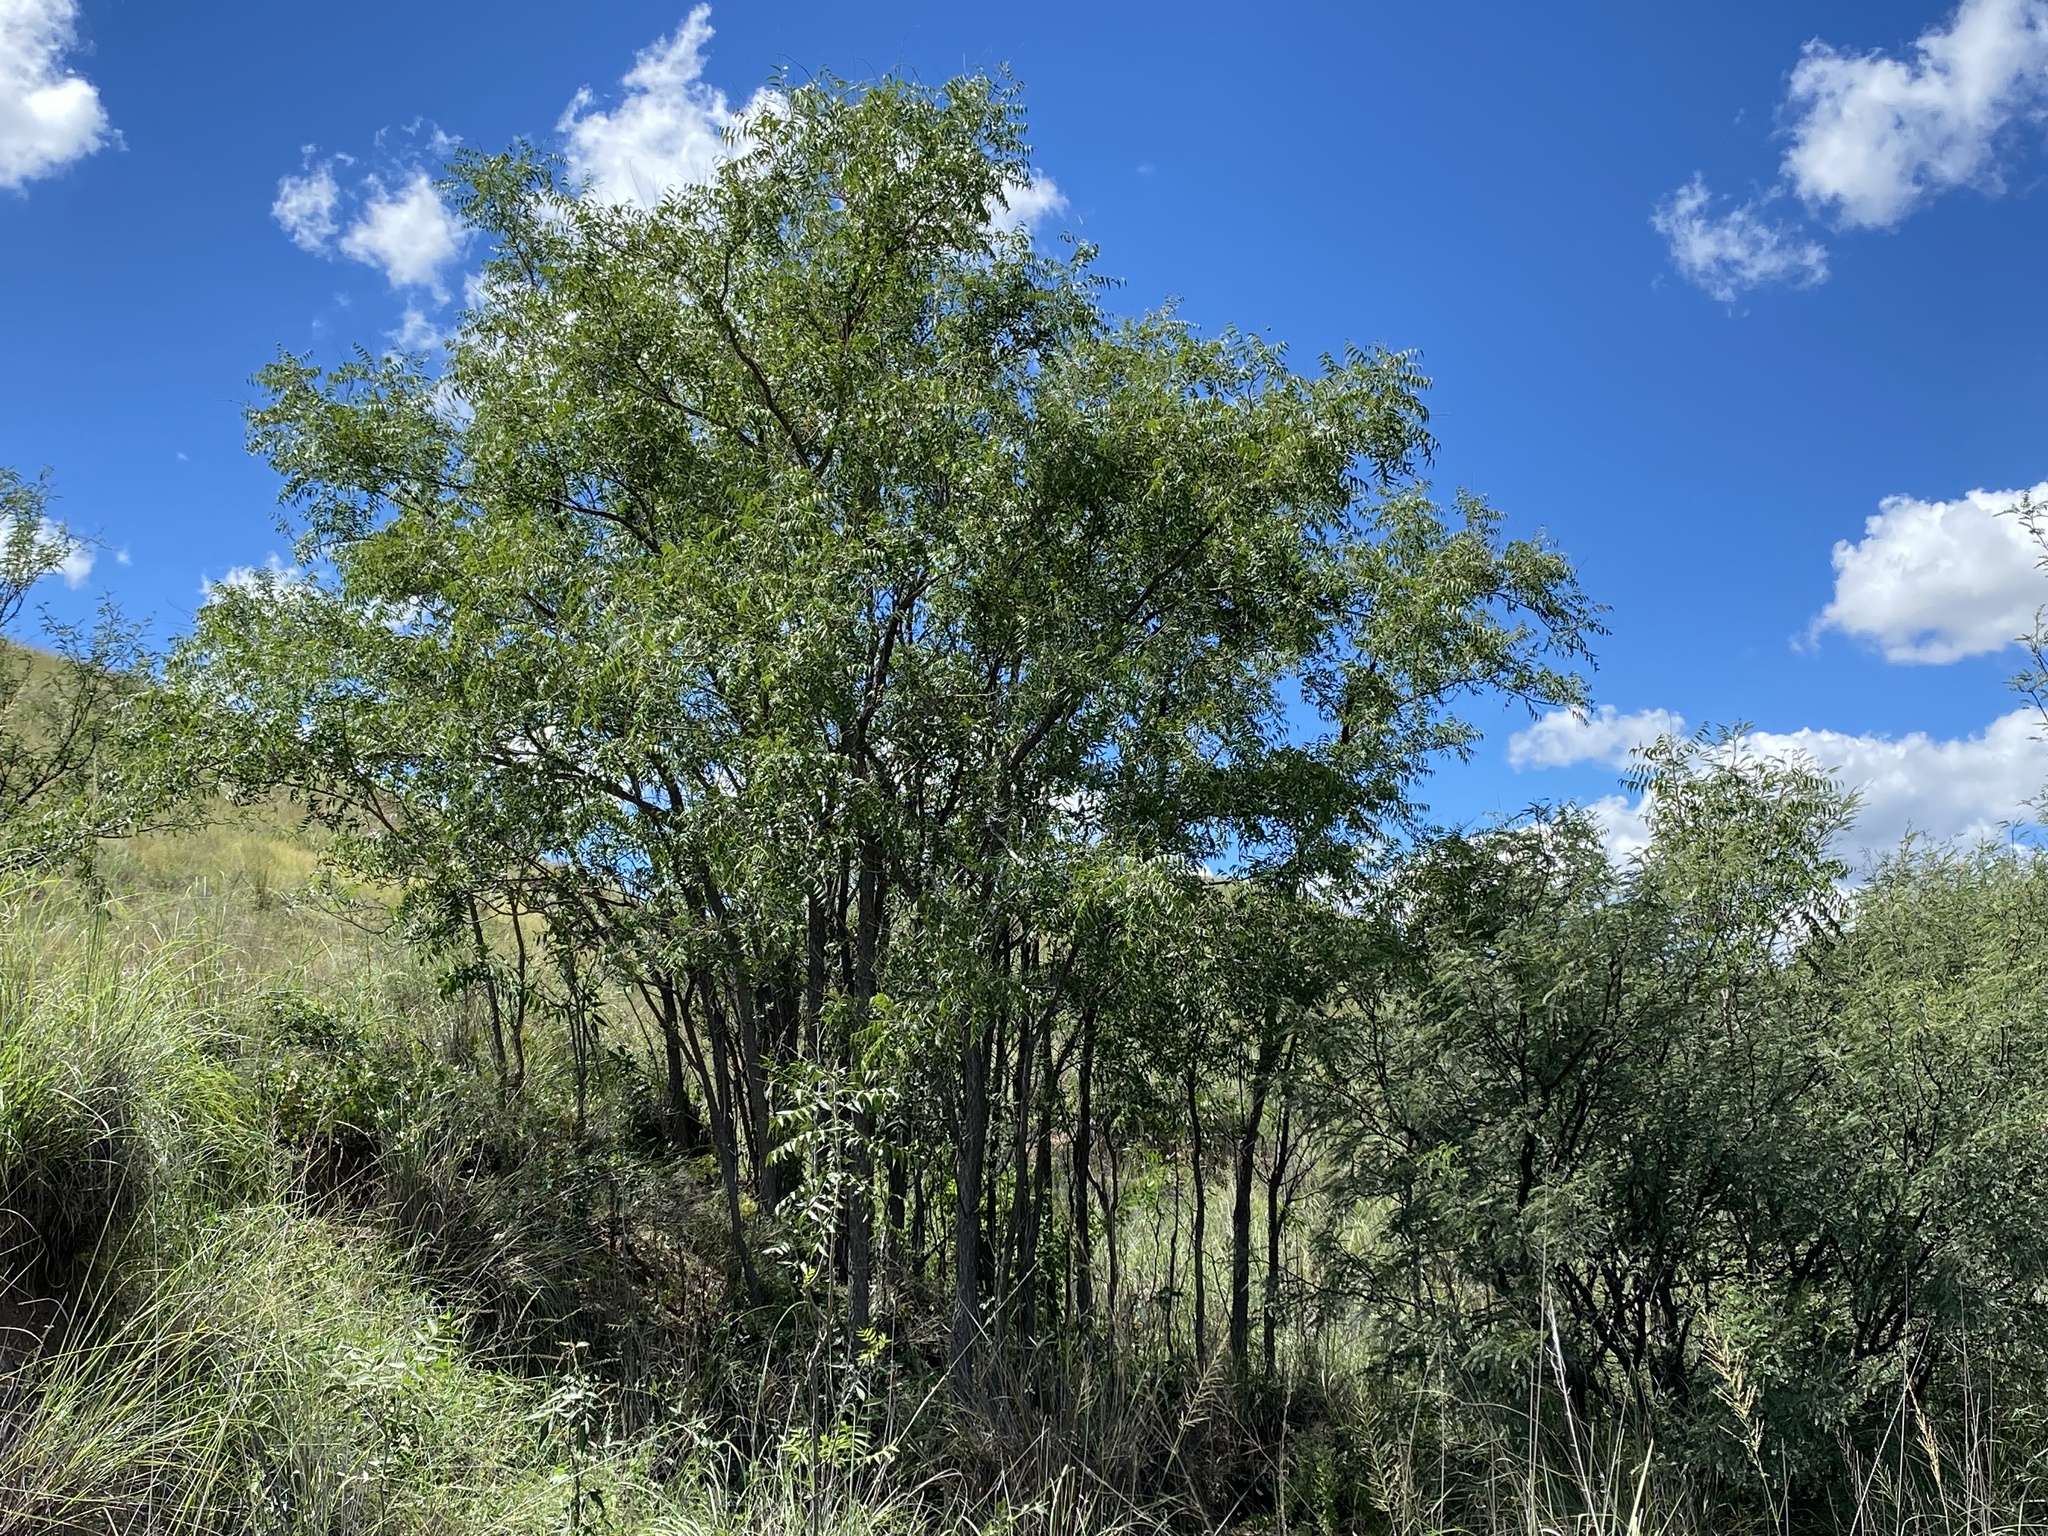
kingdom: Plantae
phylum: Tracheophyta
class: Magnoliopsida
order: Sapindales
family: Sapindaceae
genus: Sapindus
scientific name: Sapindus drummondii
